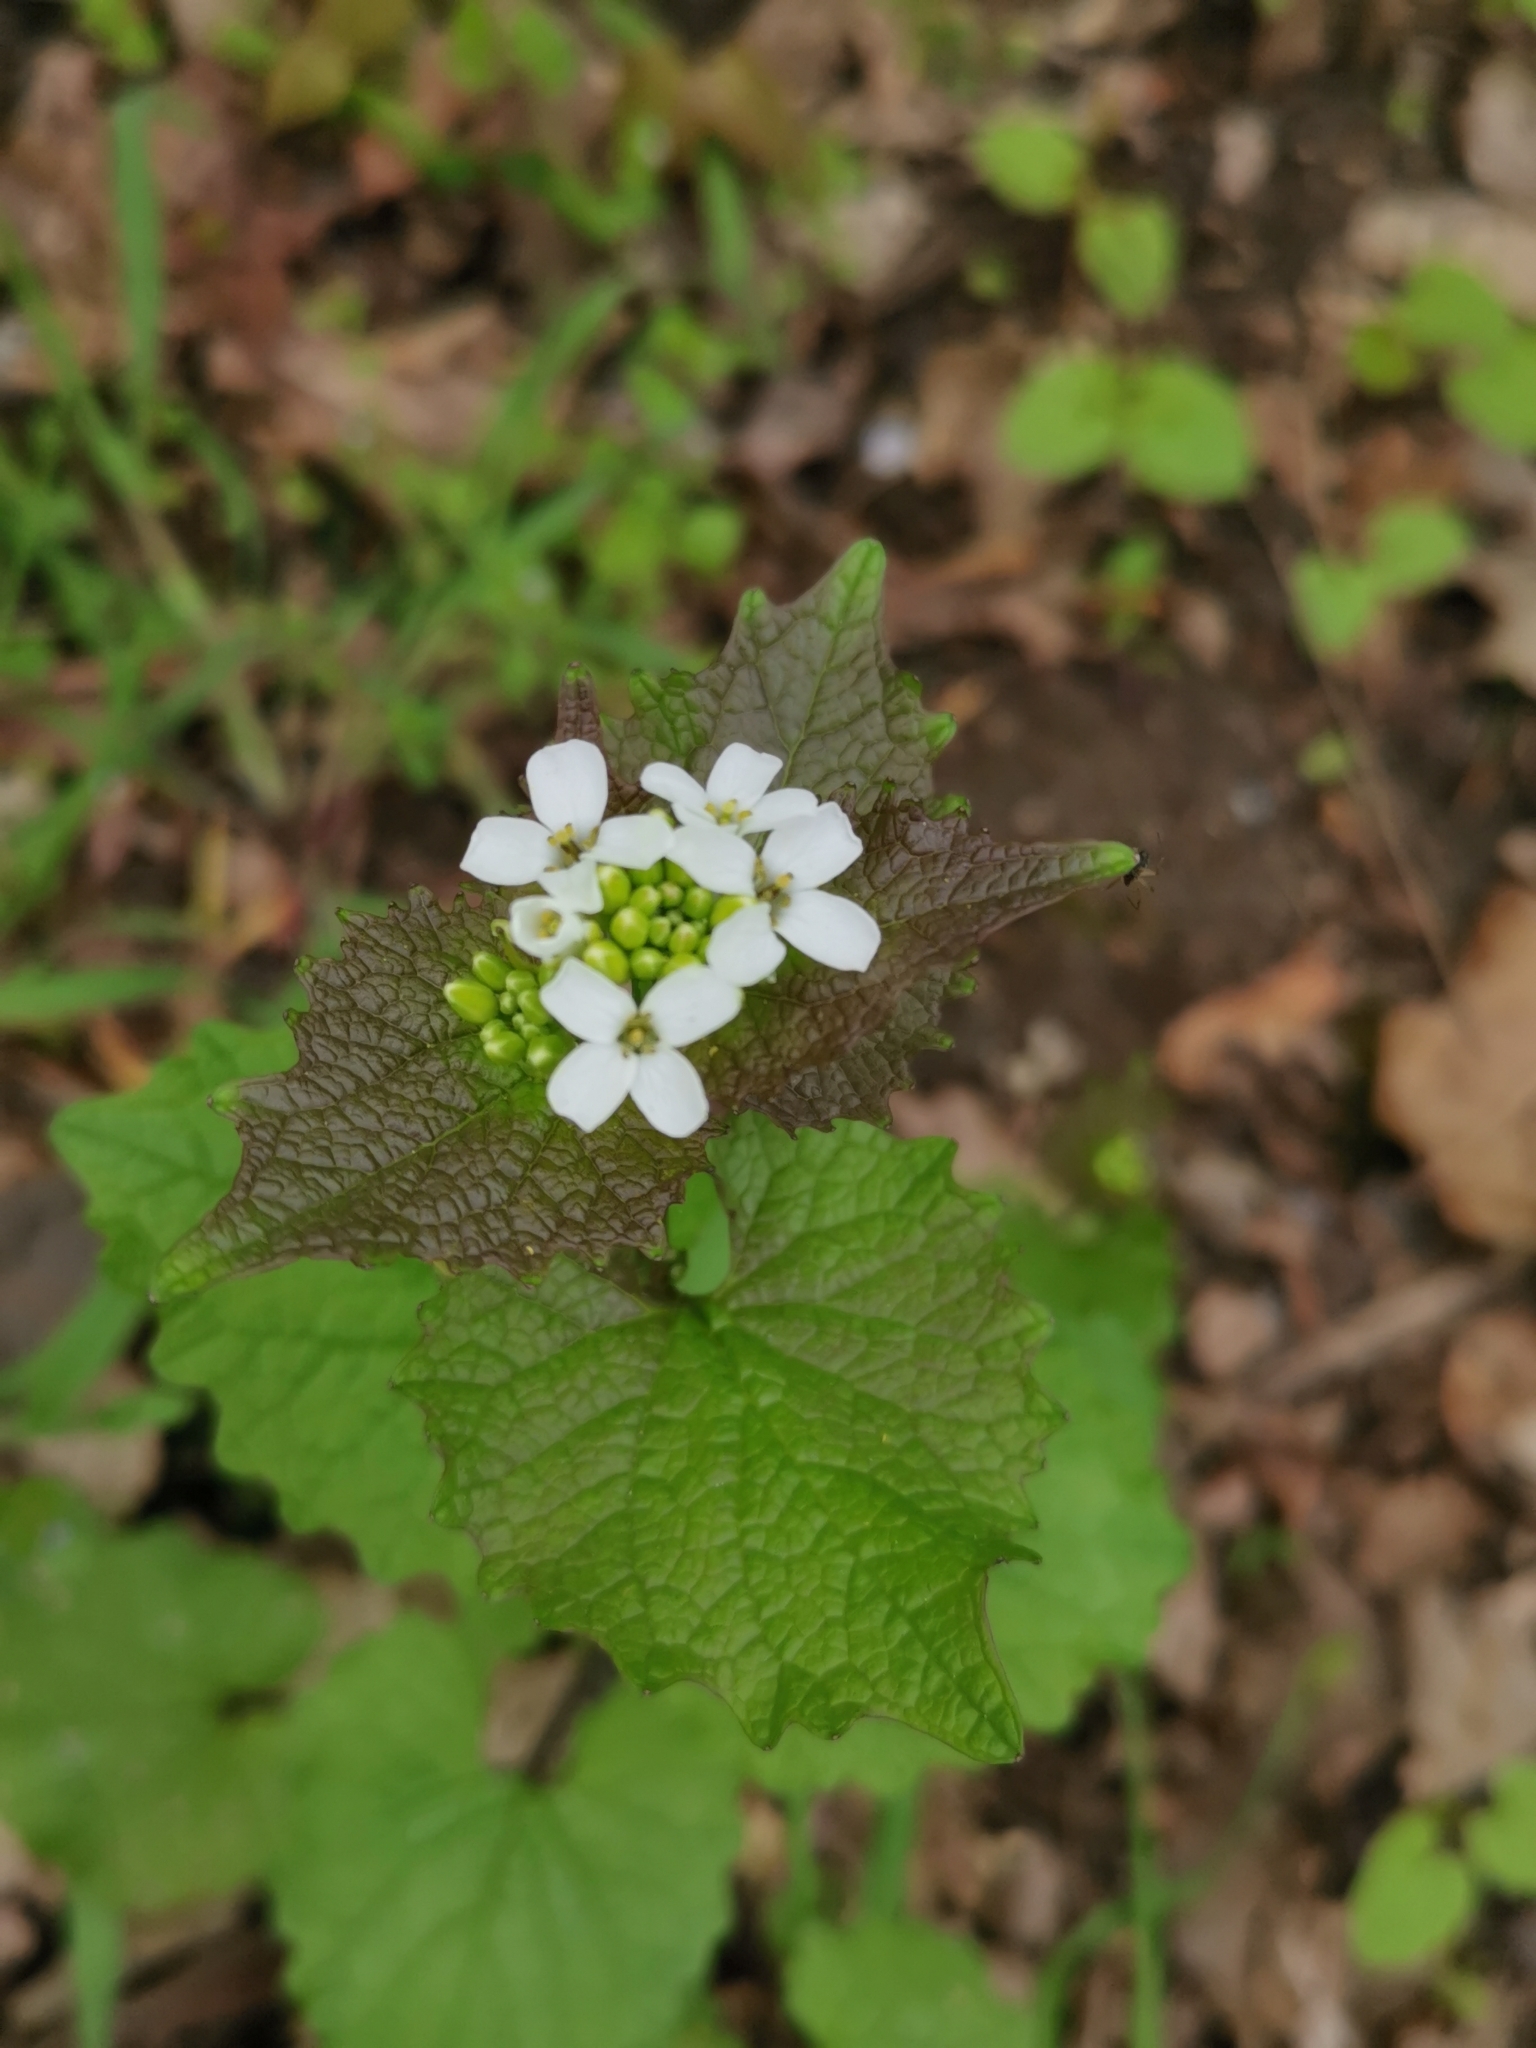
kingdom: Plantae
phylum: Tracheophyta
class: Magnoliopsida
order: Brassicales
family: Brassicaceae
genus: Alliaria
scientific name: Alliaria petiolata
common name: Garlic mustard
